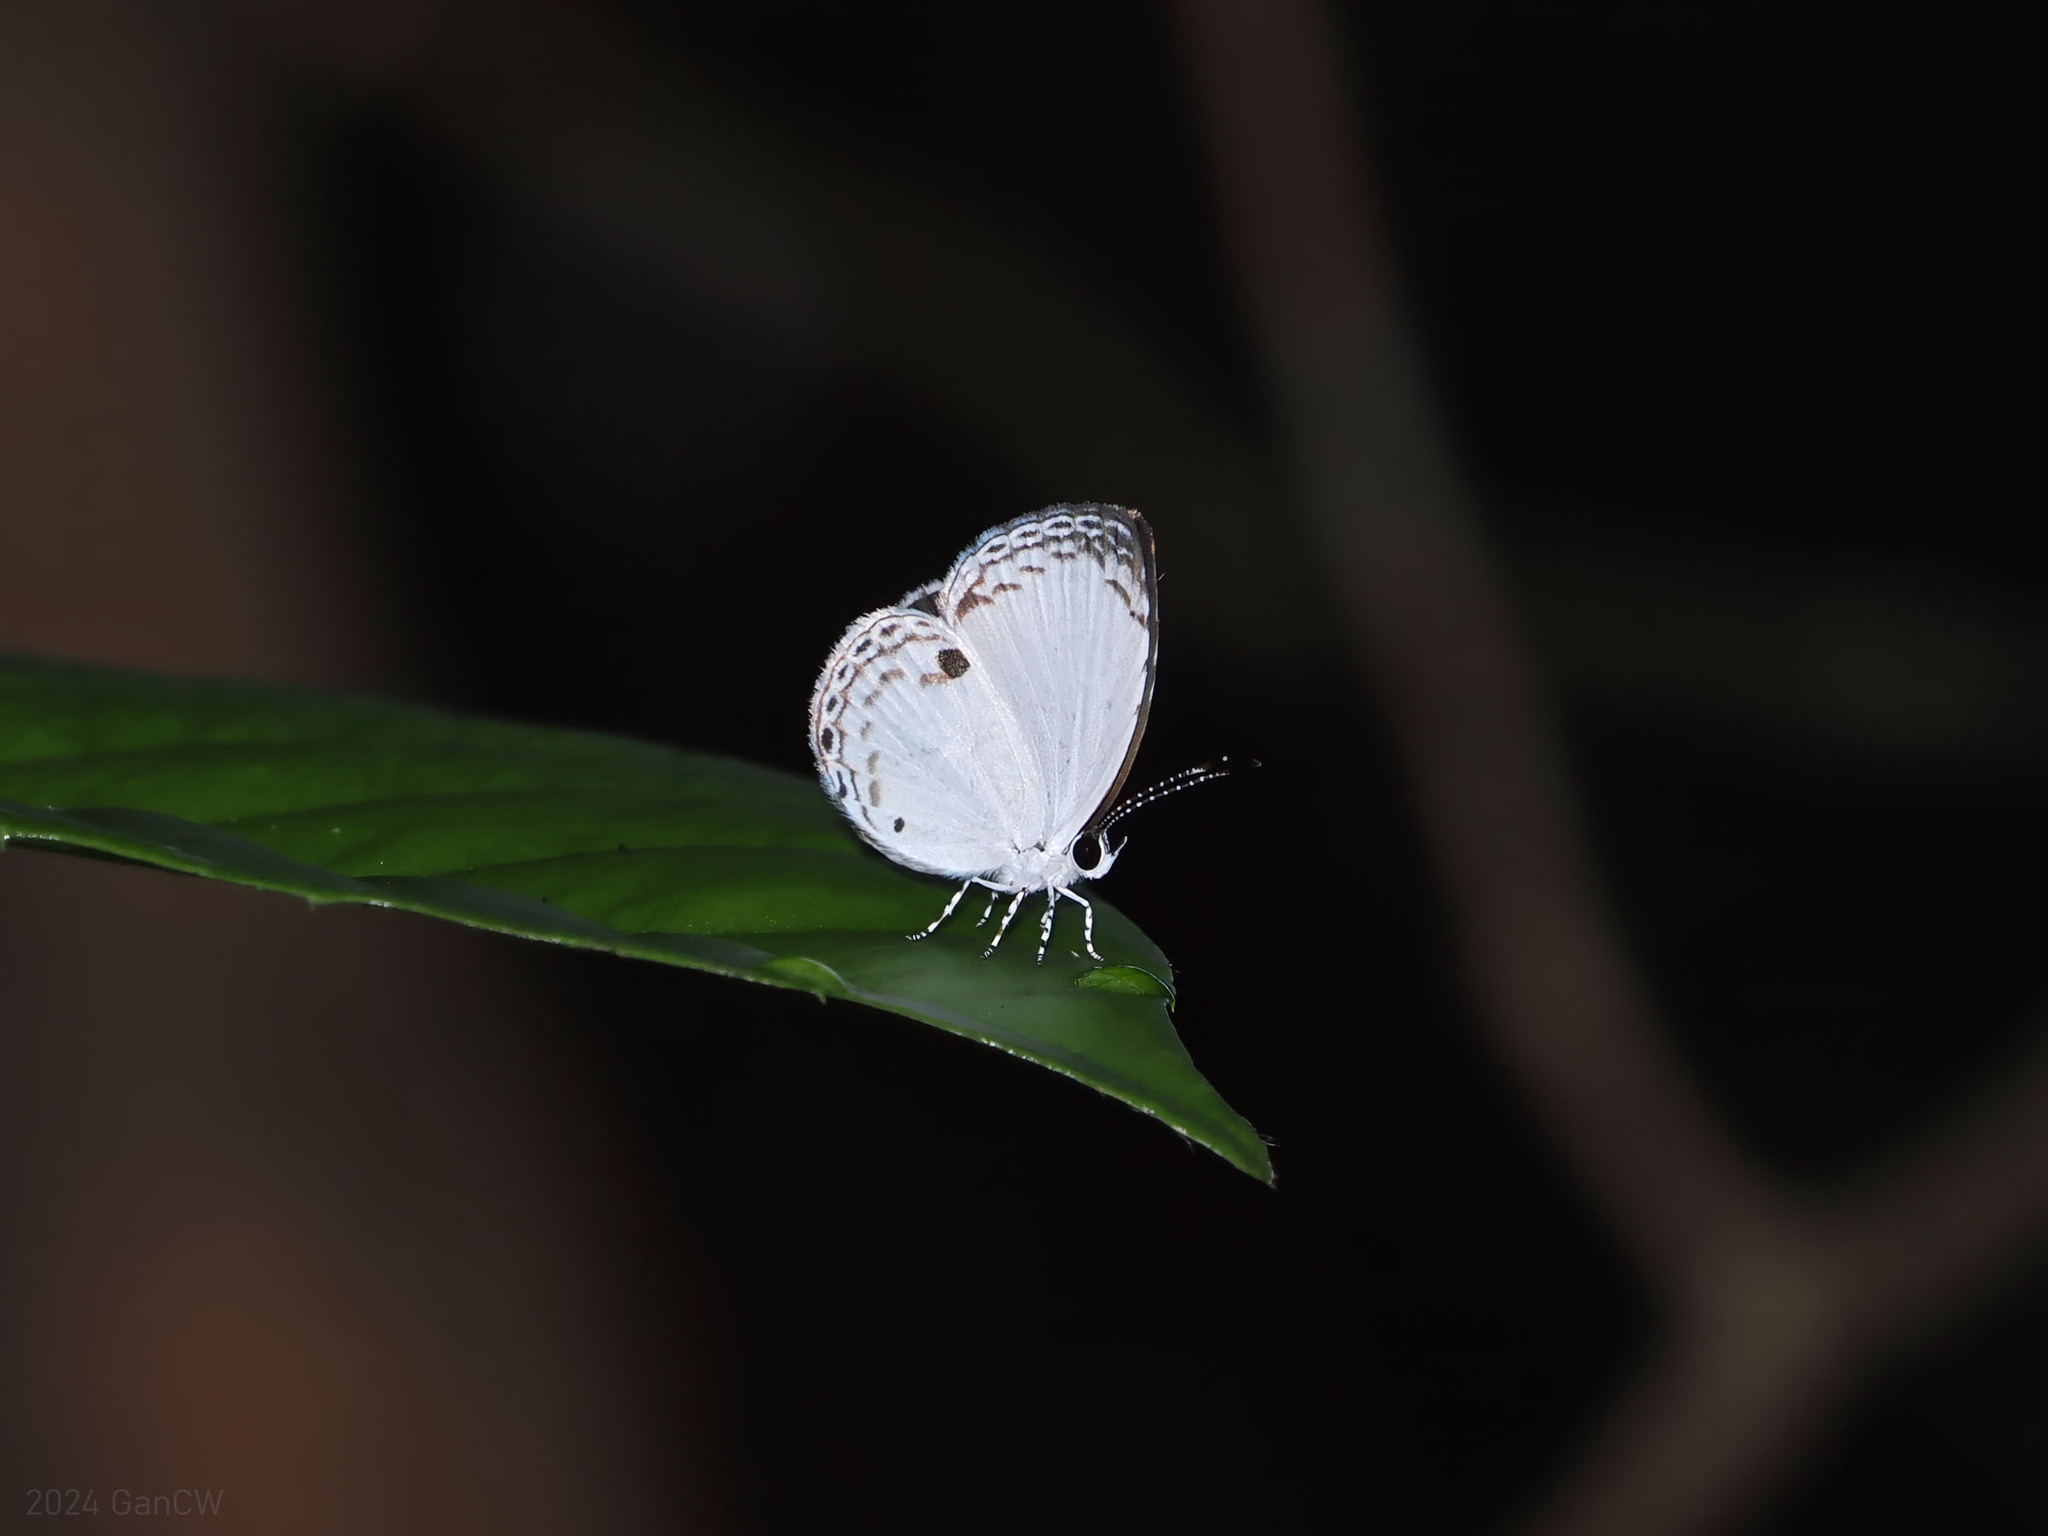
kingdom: Animalia
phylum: Arthropoda
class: Insecta
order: Lepidoptera
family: Lycaenidae
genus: Neopithecops
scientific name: Neopithecops zalmora
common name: Quaker
